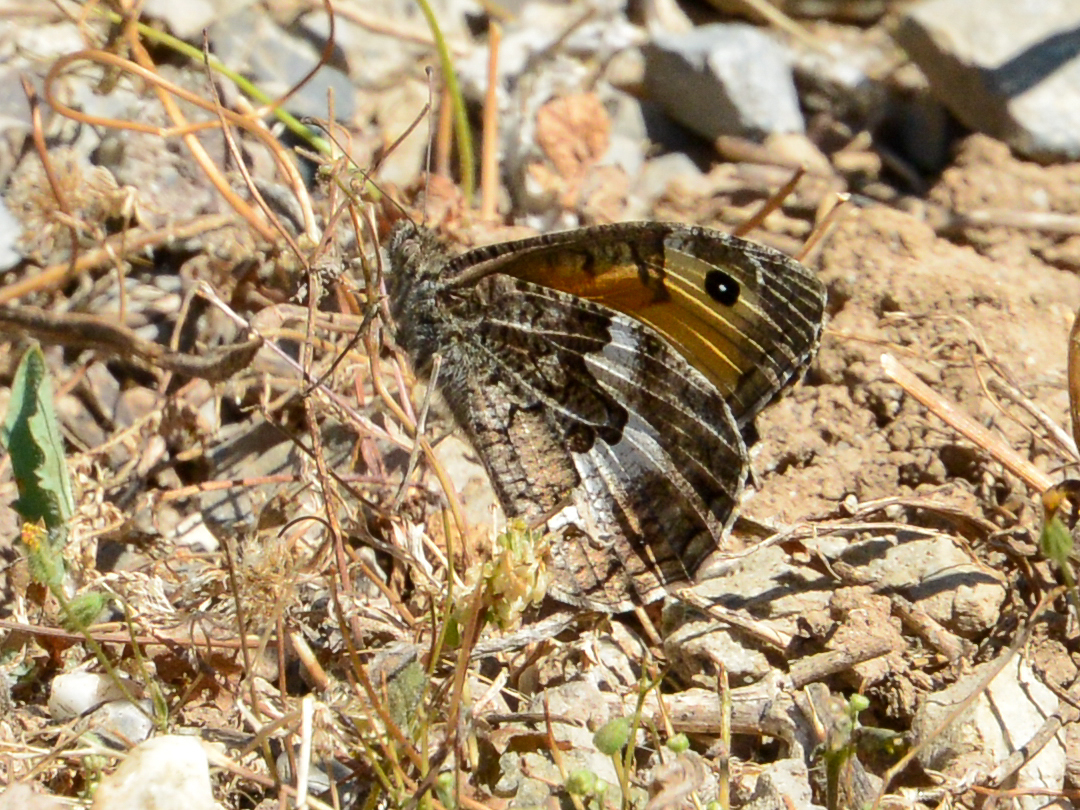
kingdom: Animalia
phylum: Arthropoda
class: Insecta
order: Lepidoptera
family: Nymphalidae
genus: Hipparchia
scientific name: Hipparchia cretica
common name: Cretan grayling
